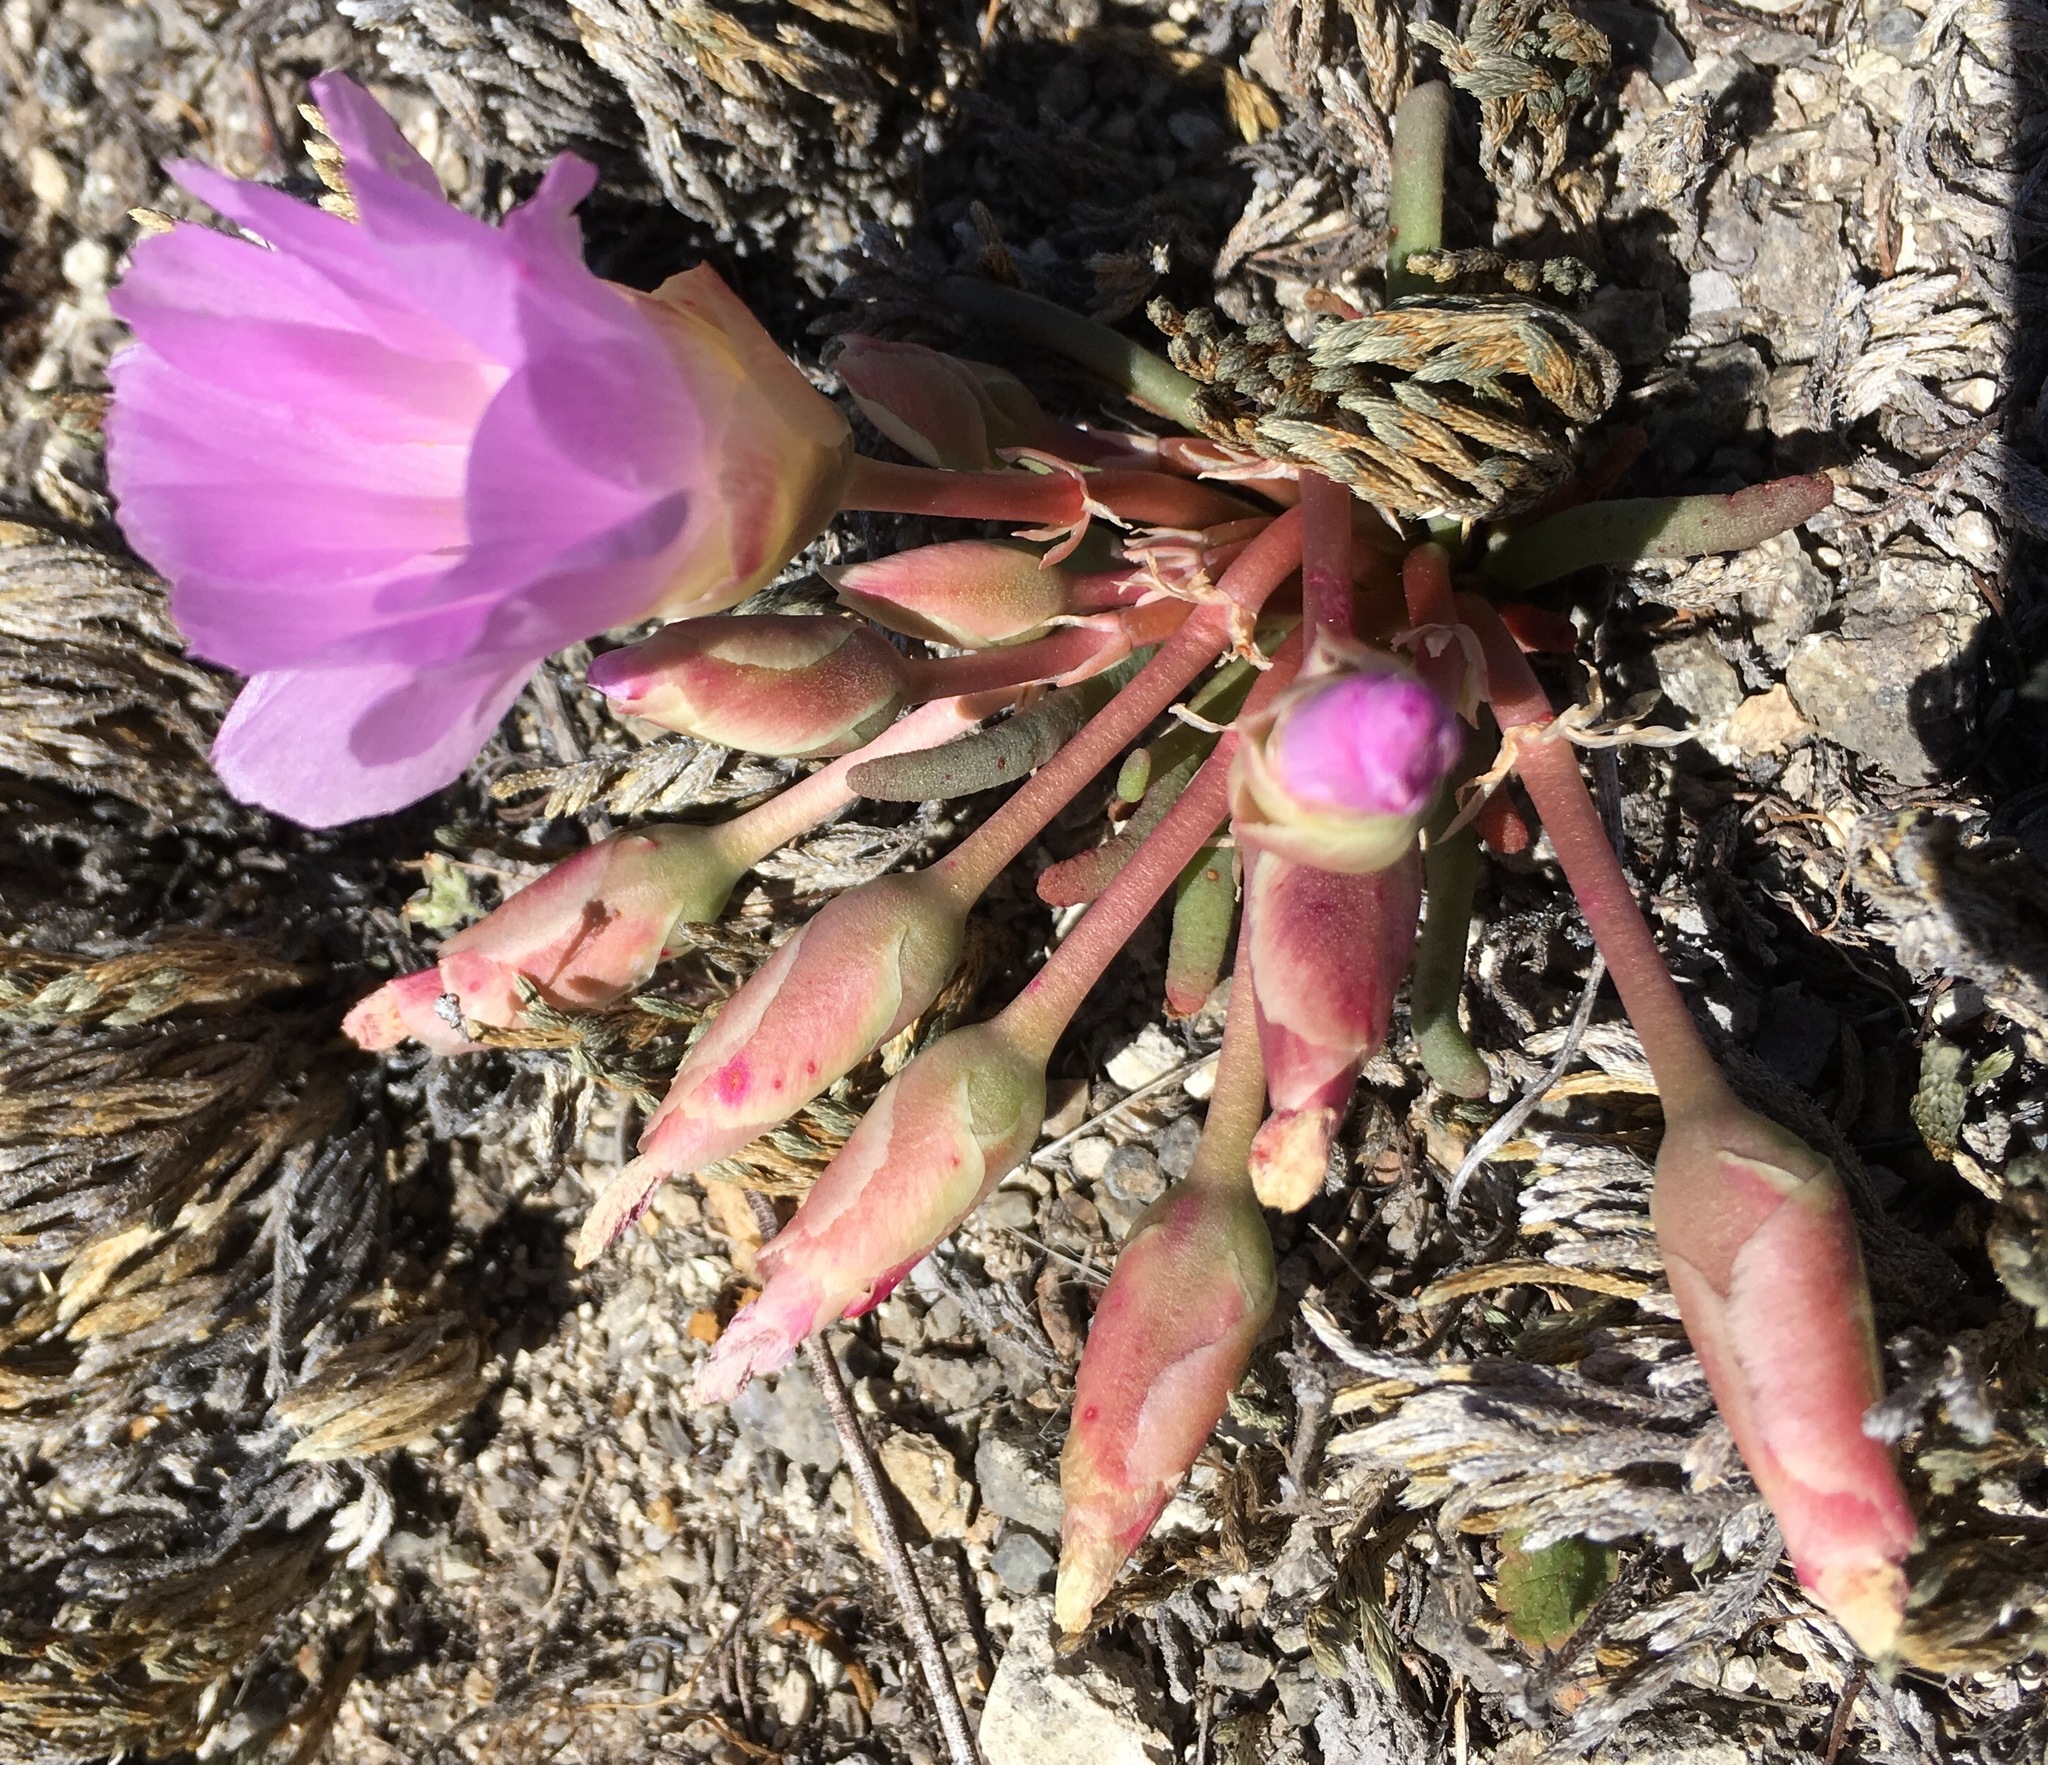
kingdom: Plantae
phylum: Tracheophyta
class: Magnoliopsida
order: Caryophyllales
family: Montiaceae
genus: Lewisia
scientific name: Lewisia rediviva
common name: Bitter-root
